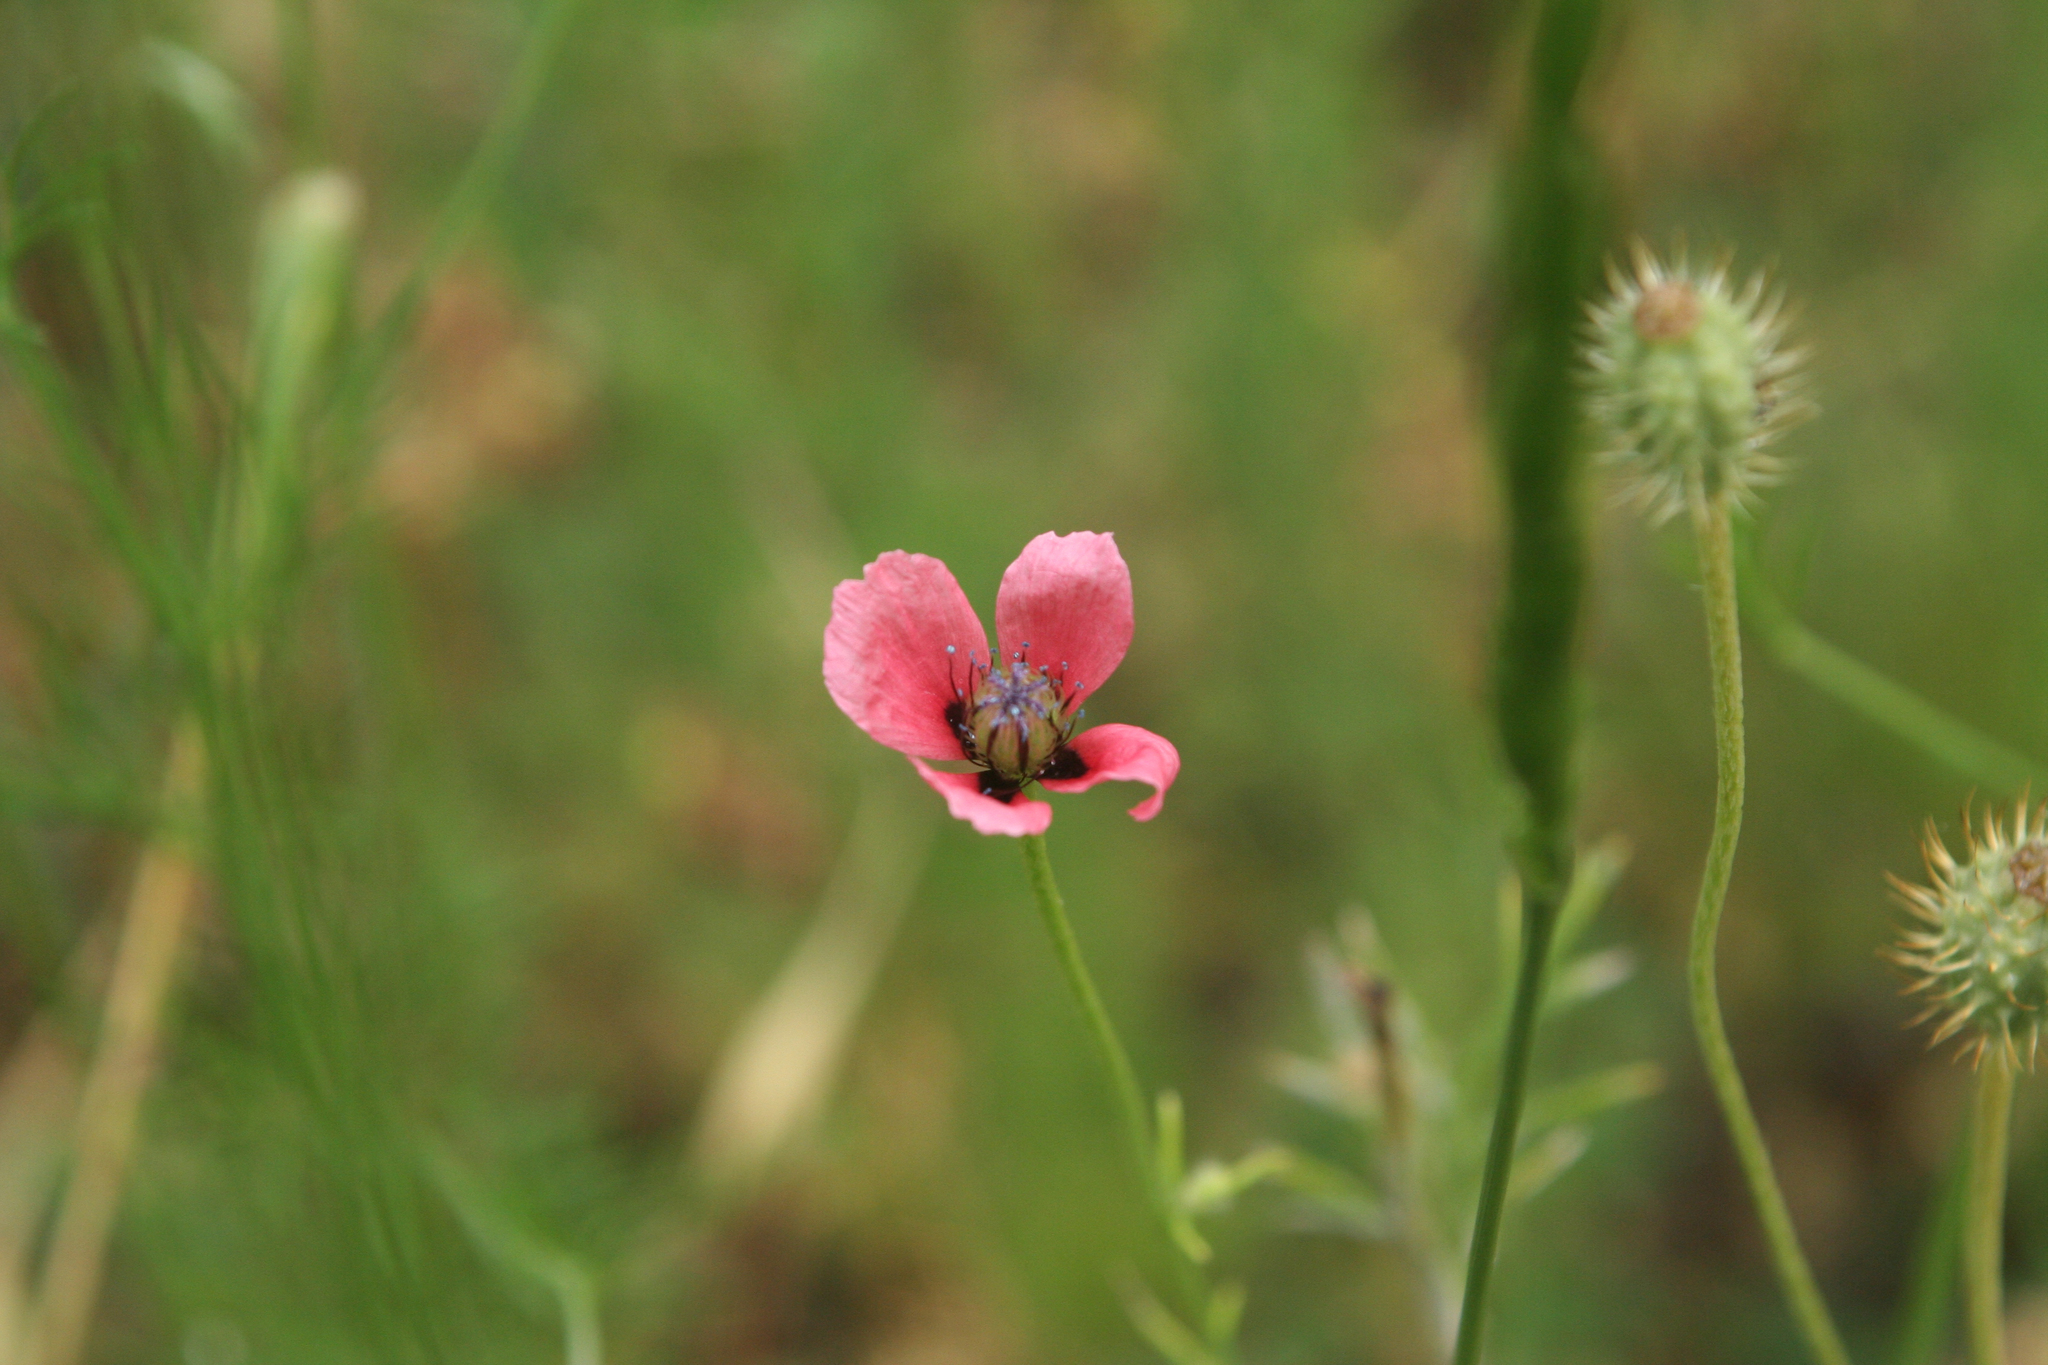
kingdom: Plantae
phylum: Tracheophyta
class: Magnoliopsida
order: Ranunculales
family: Papaveraceae
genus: Roemeria
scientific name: Roemeria hispida
